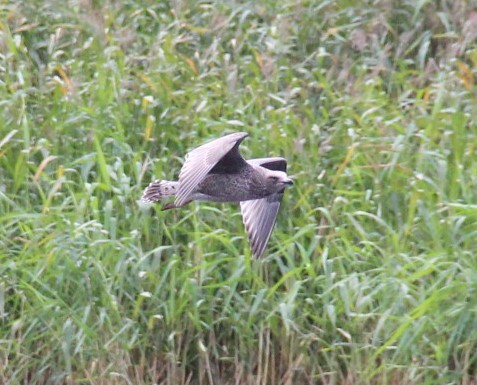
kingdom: Animalia
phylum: Chordata
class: Aves
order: Charadriiformes
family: Laridae
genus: Larus
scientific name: Larus argentatus
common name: Herring gull
